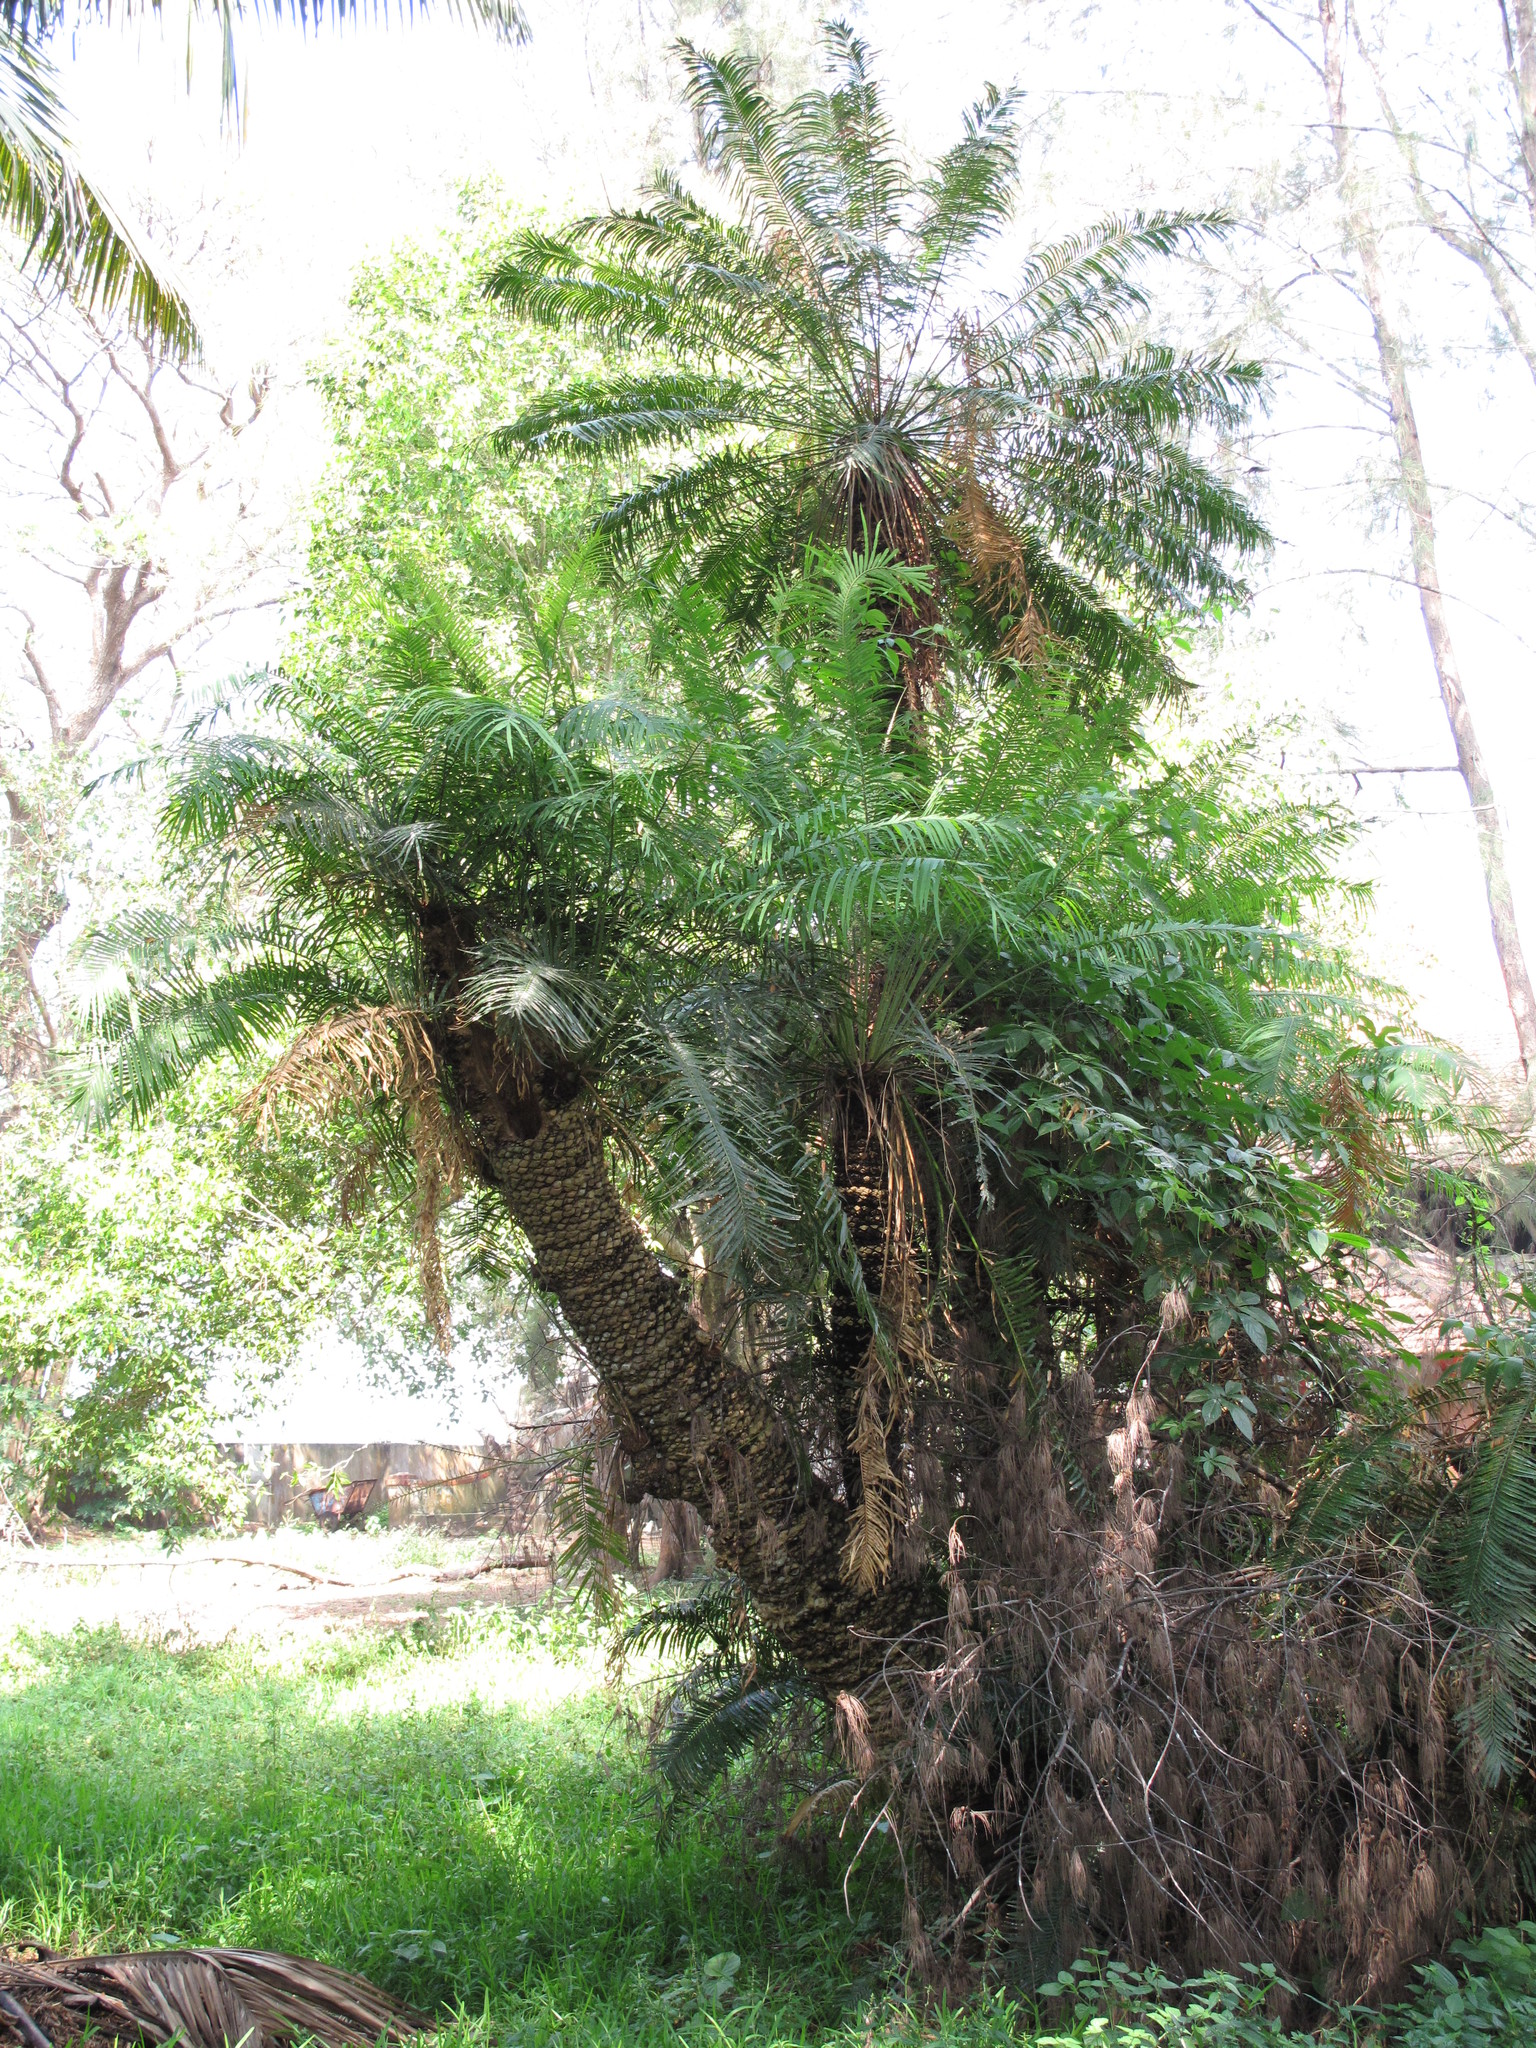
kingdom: Plantae
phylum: Tracheophyta
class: Cycadopsida
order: Cycadales
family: Cycadaceae
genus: Cycas
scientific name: Cycas circinalis
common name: Queen sago
